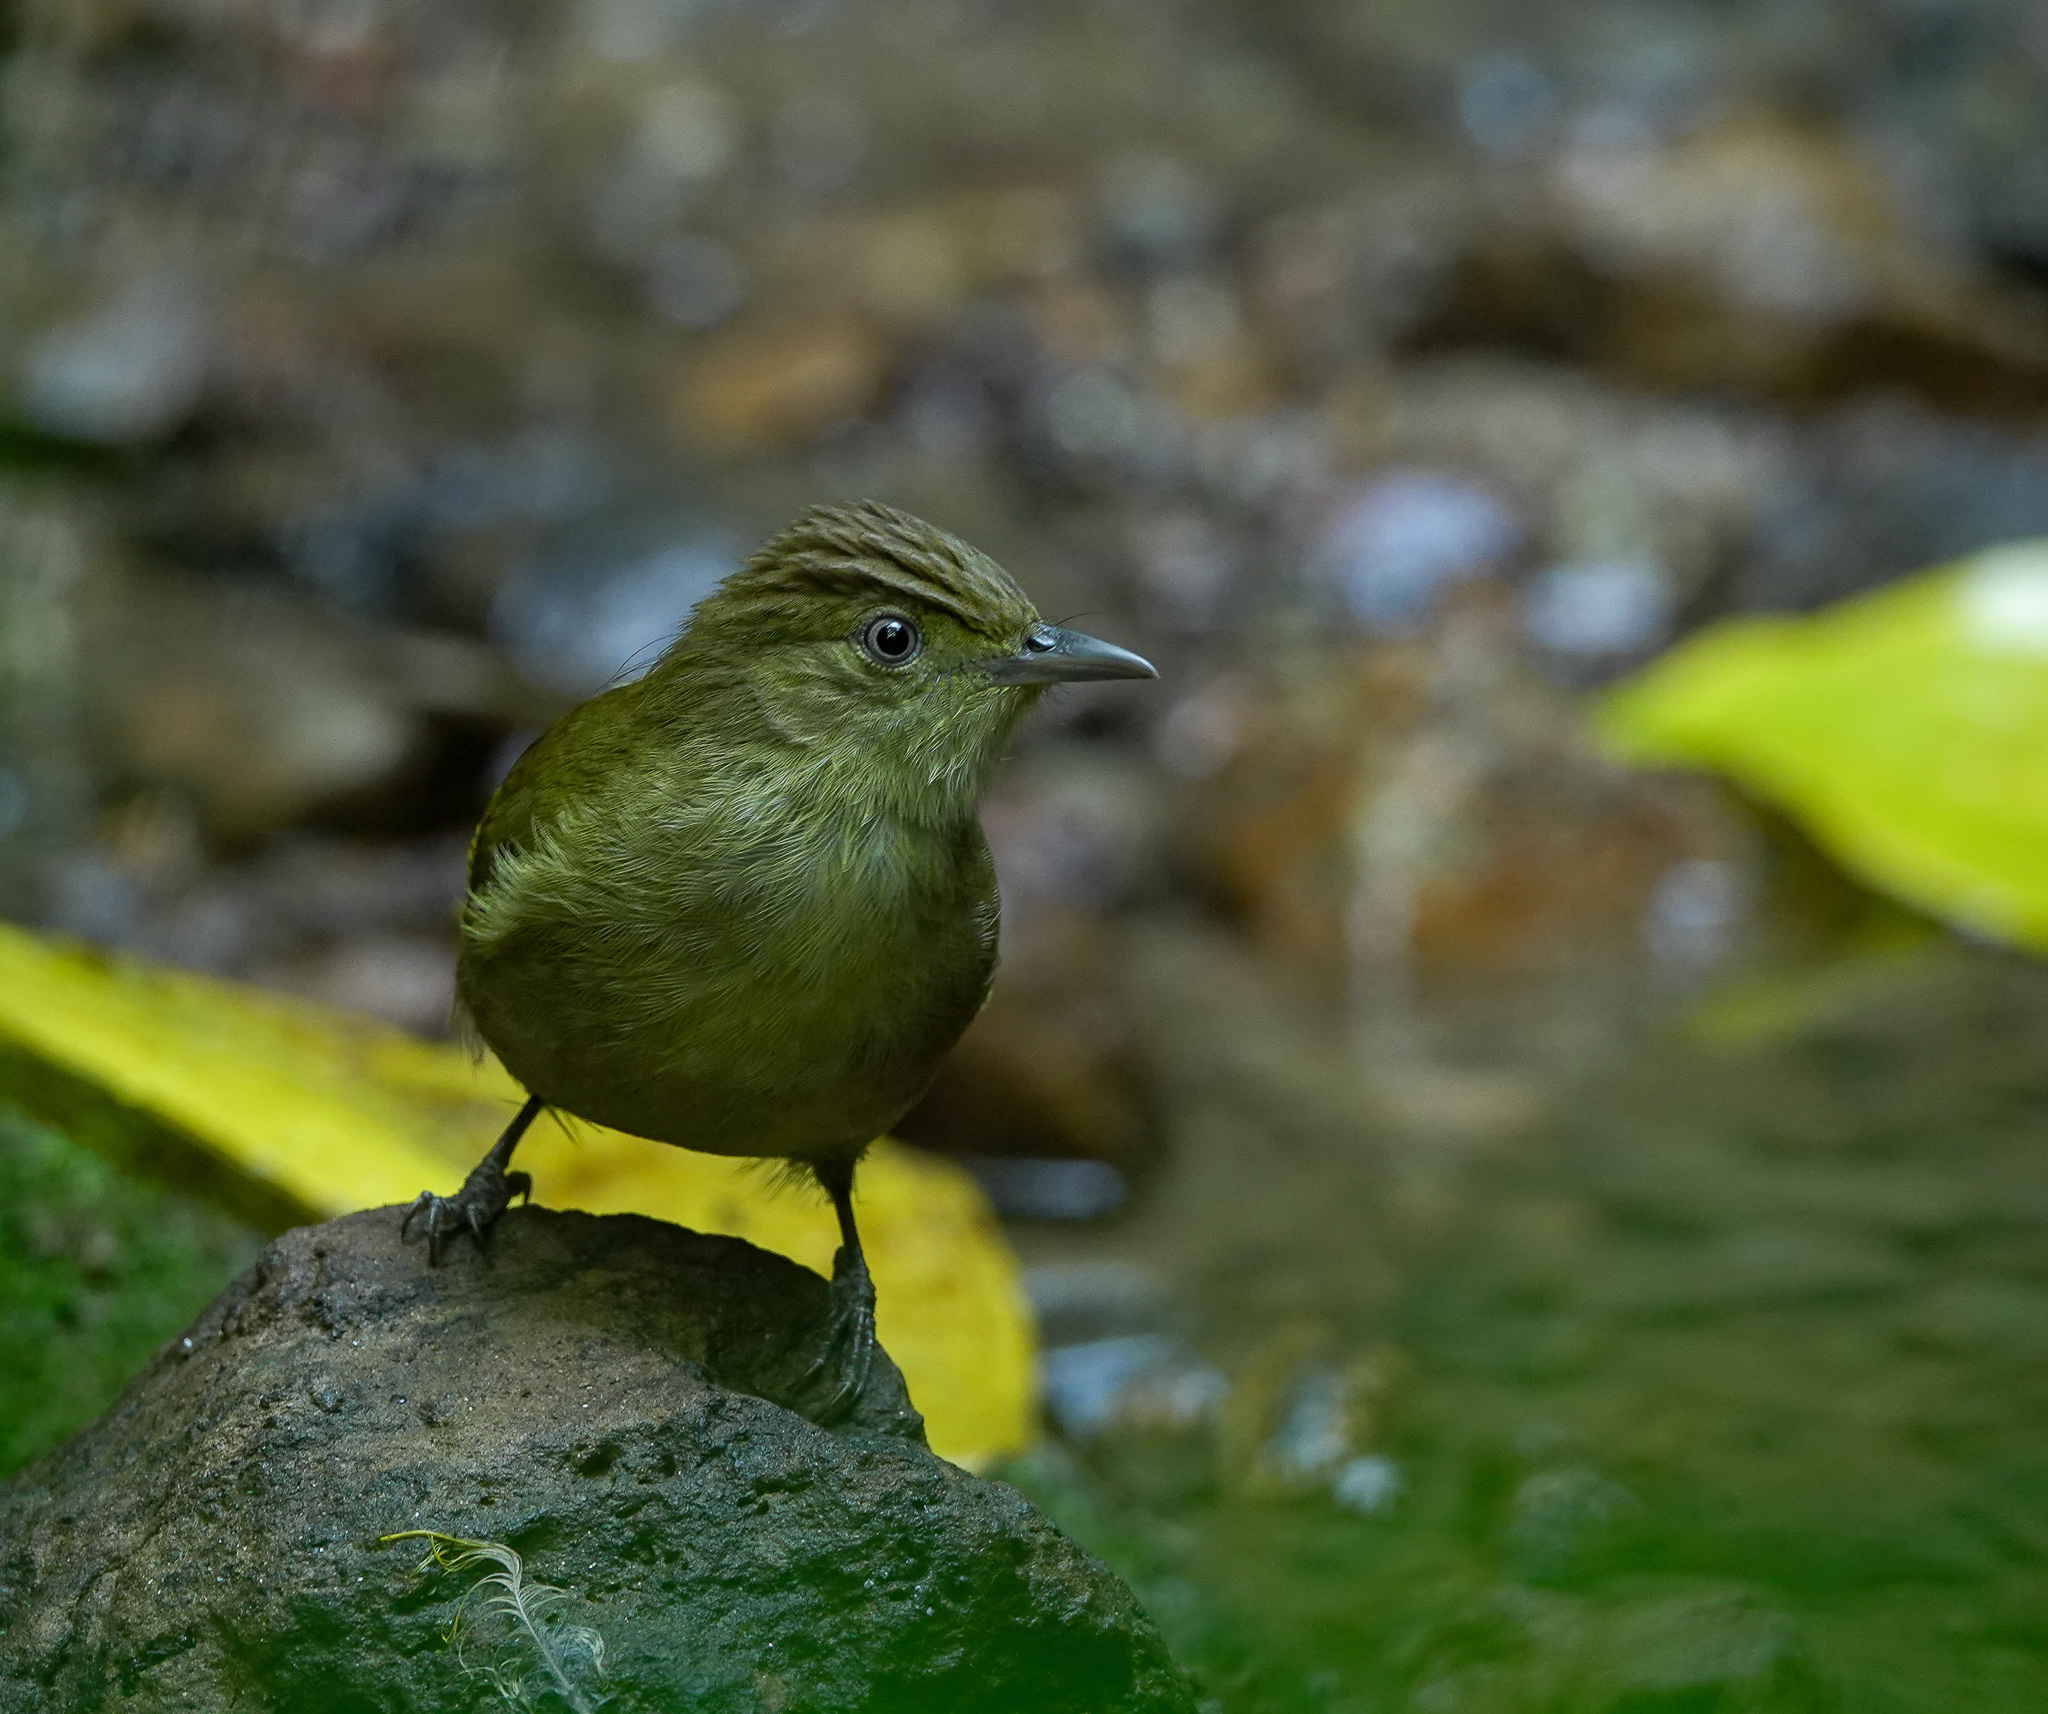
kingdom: Animalia
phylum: Chordata
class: Aves
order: Passeriformes
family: Pycnonotidae
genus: Iole
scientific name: Iole virescens
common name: Olive bulbul
